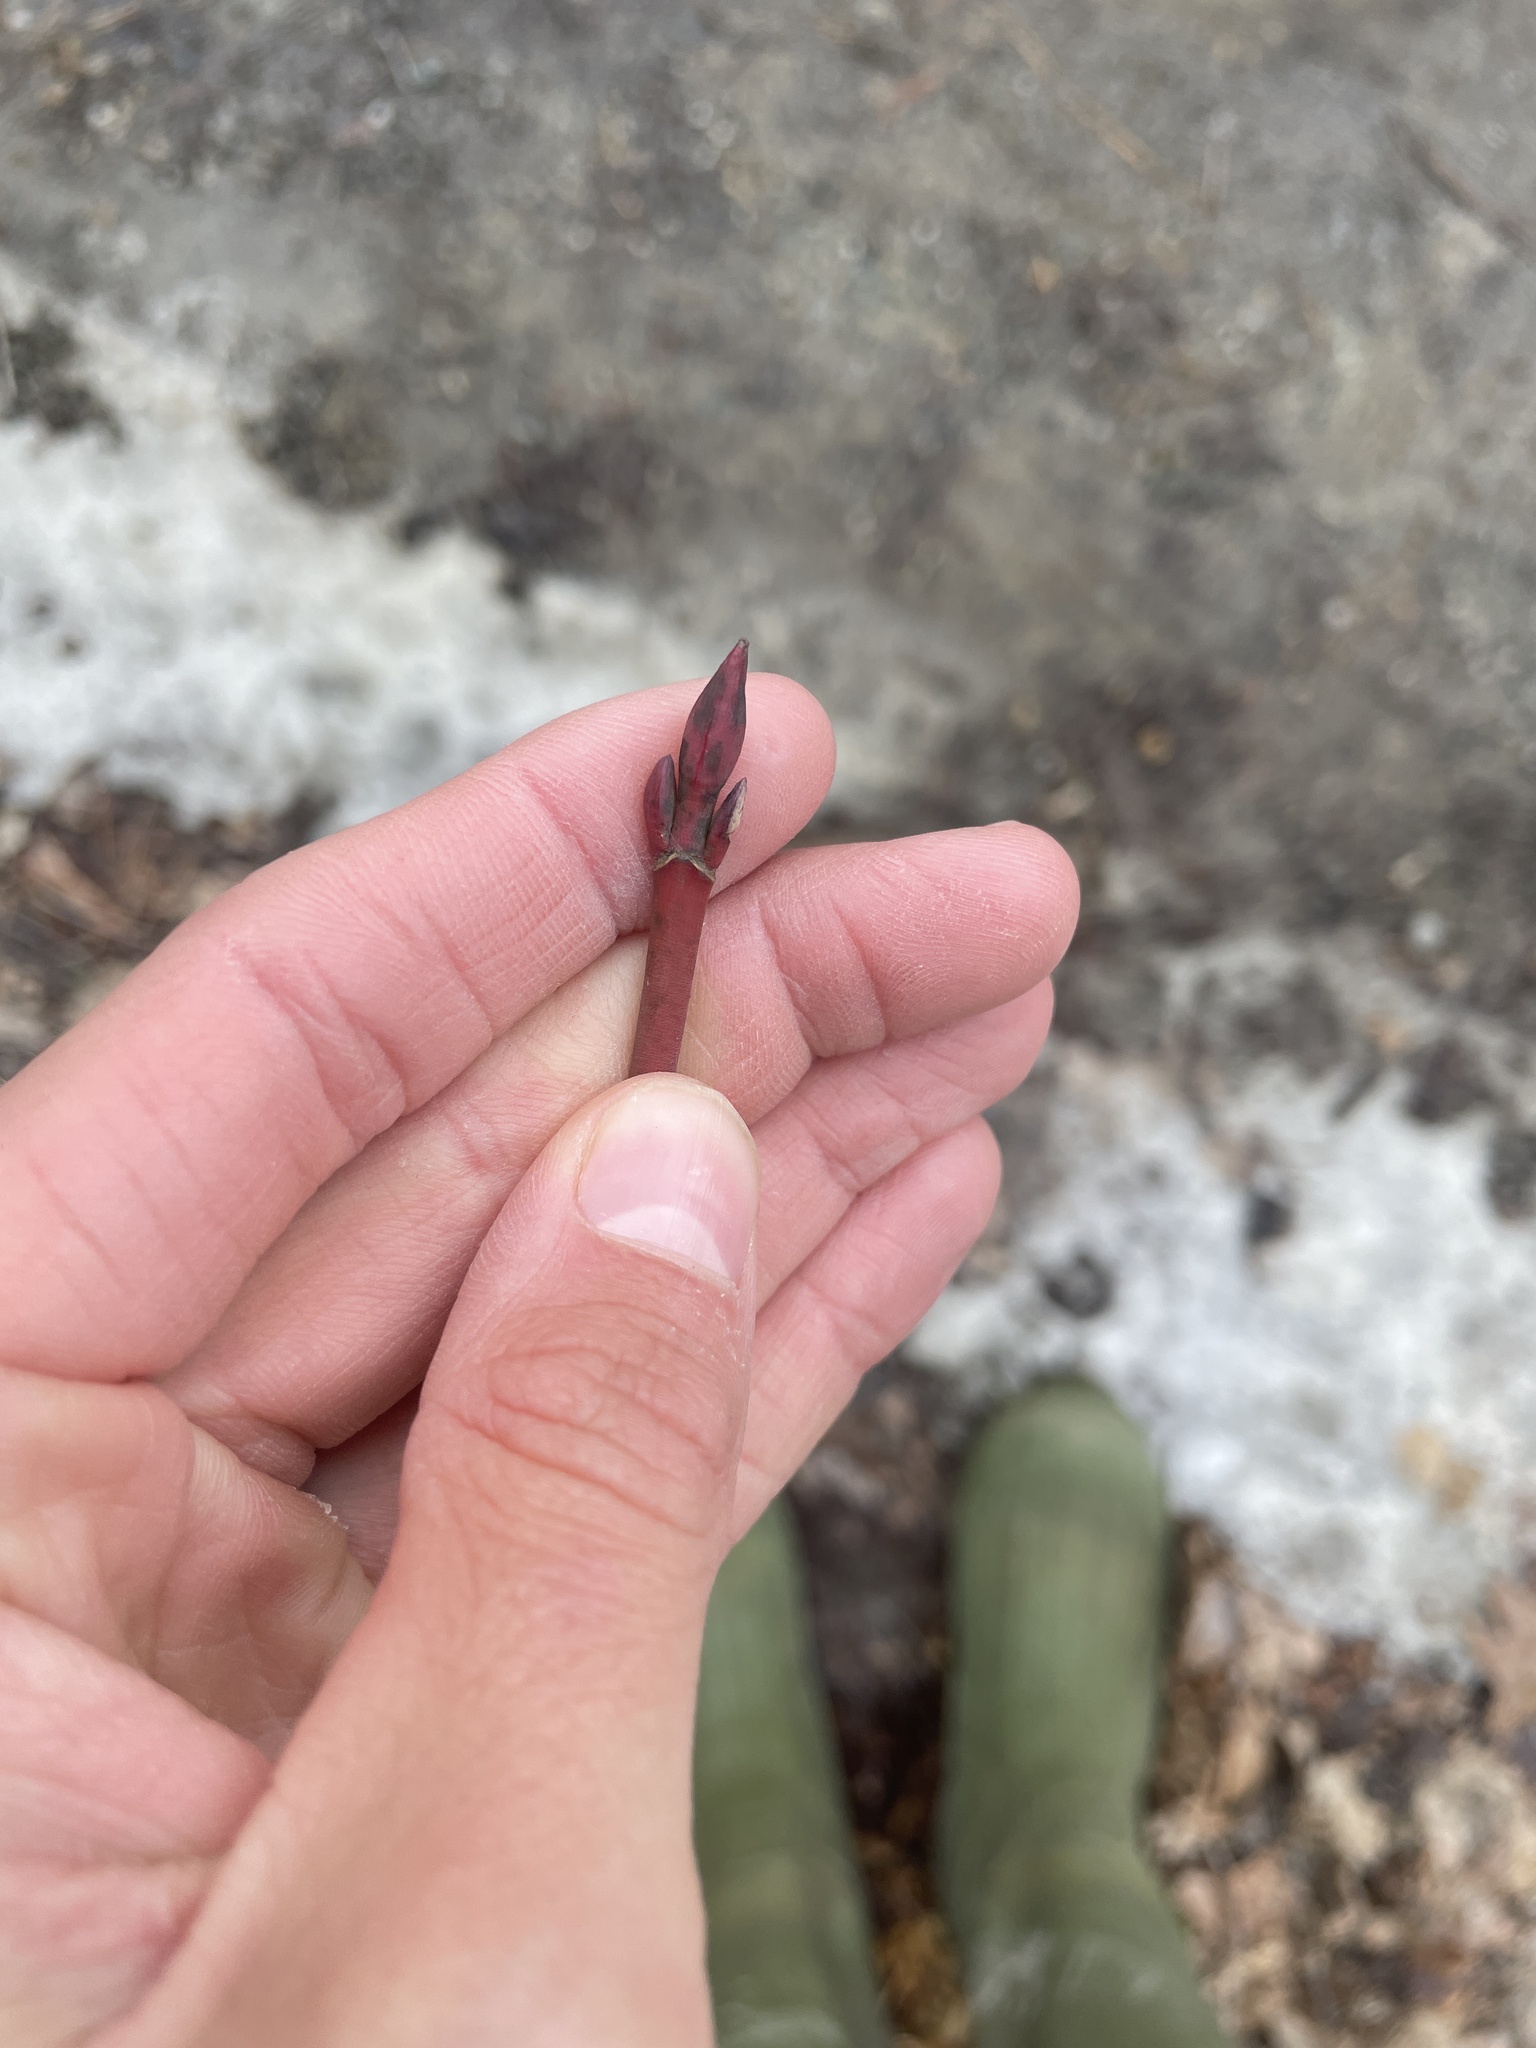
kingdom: Plantae
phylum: Tracheophyta
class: Magnoliopsida
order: Sapindales
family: Sapindaceae
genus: Acer
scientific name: Acer pensylvanicum
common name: Moosewood
